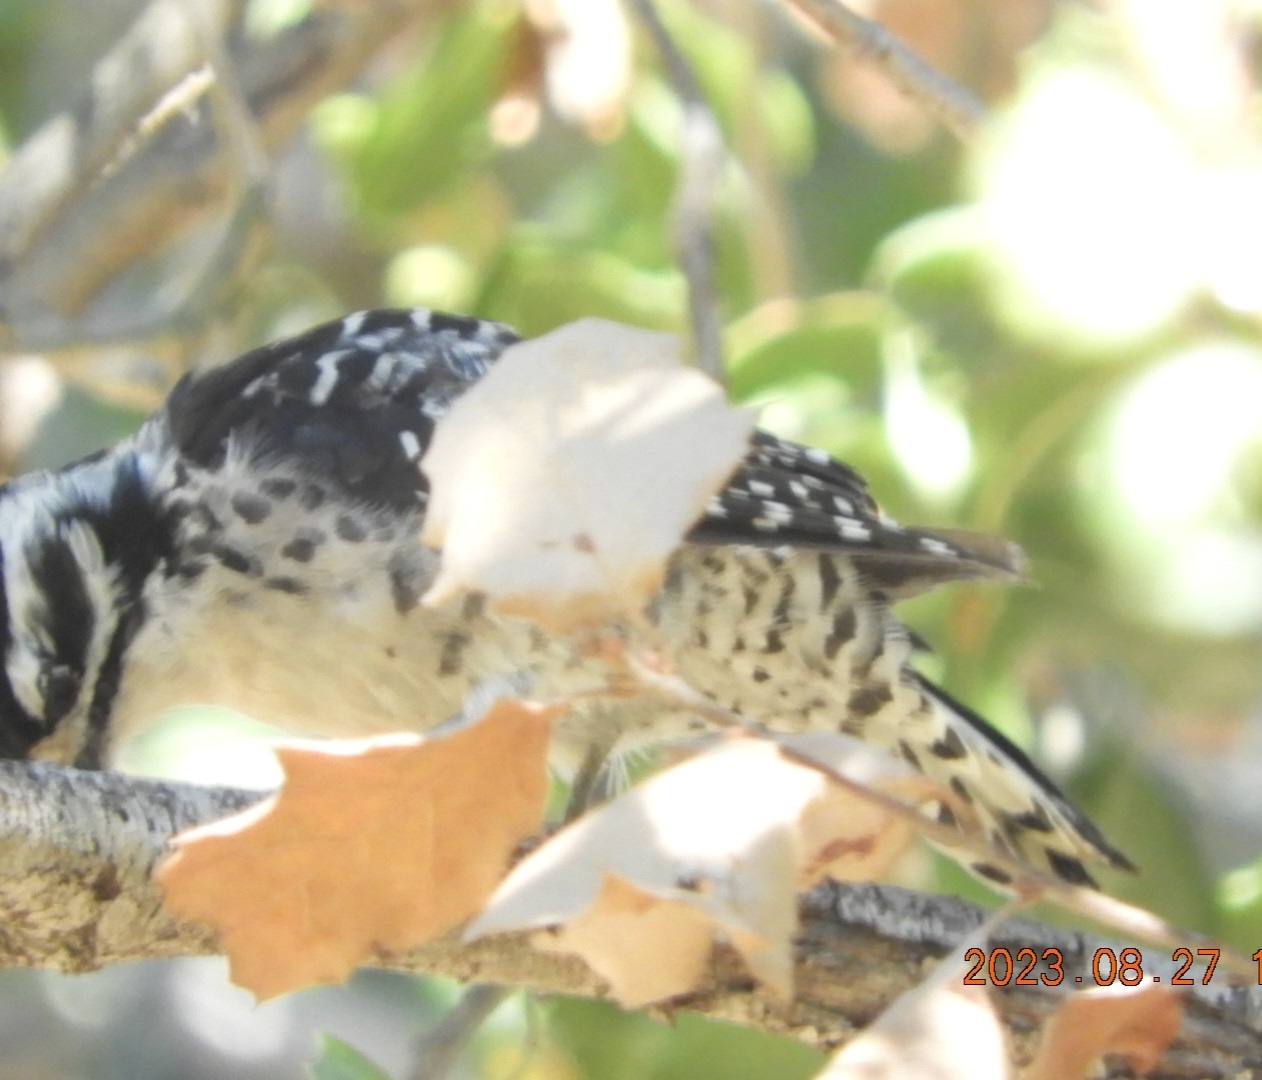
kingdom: Animalia
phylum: Chordata
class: Aves
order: Piciformes
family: Picidae
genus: Dryobates
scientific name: Dryobates nuttallii
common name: Nuttall's woodpecker
